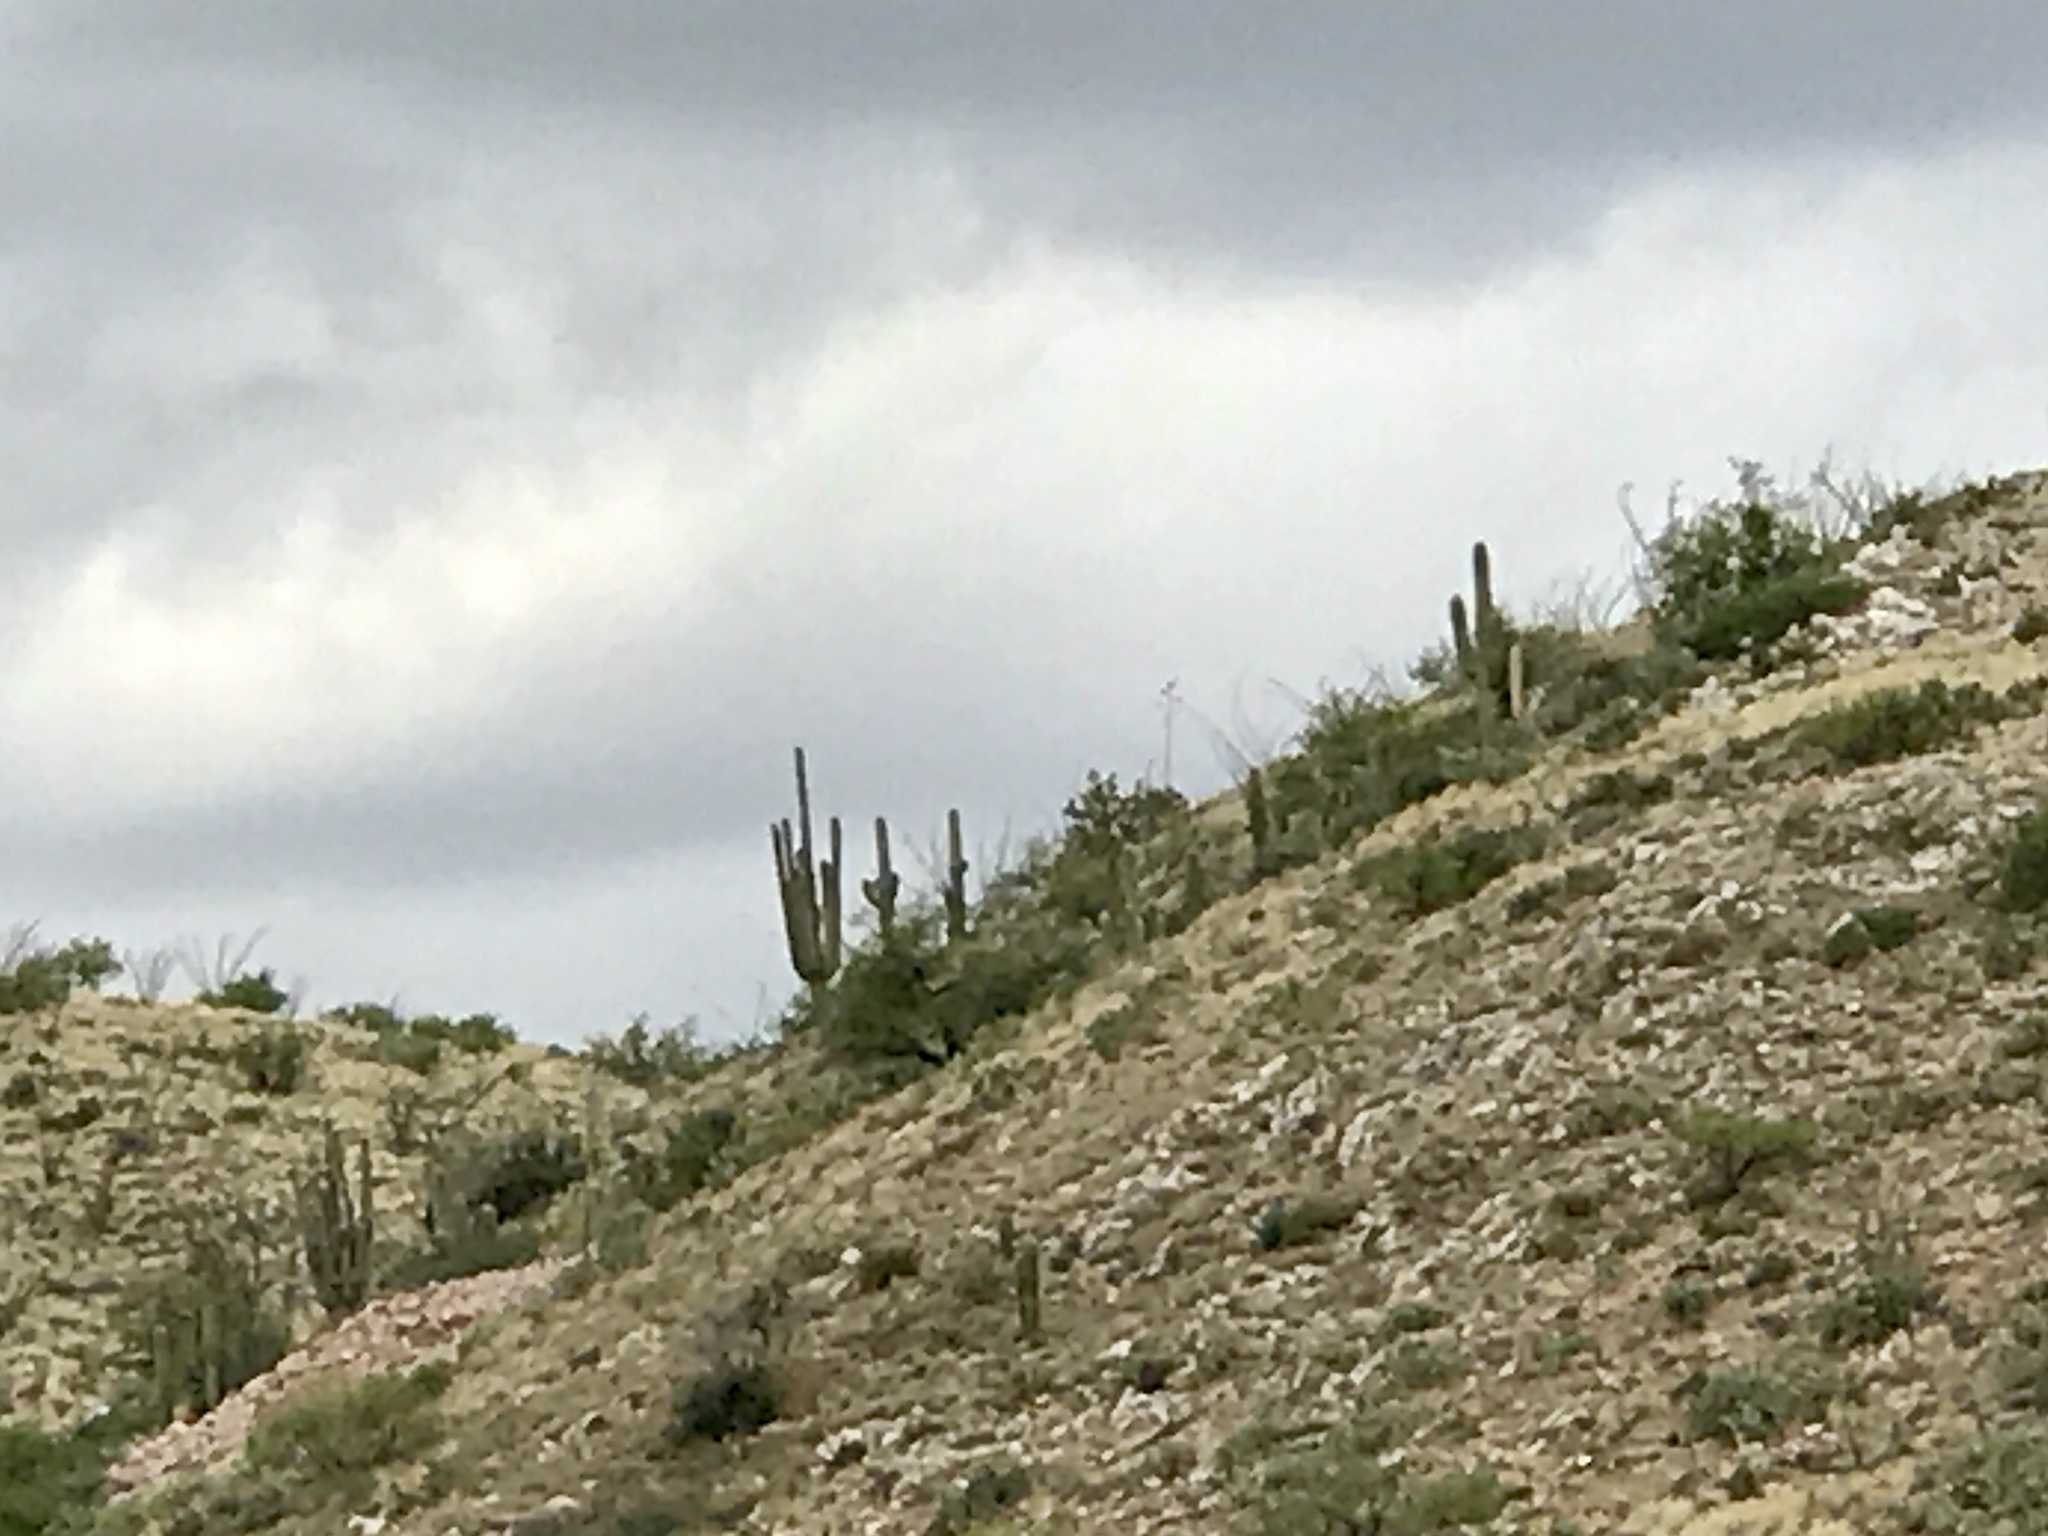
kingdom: Plantae
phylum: Tracheophyta
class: Magnoliopsida
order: Caryophyllales
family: Cactaceae
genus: Carnegiea
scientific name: Carnegiea gigantea
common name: Saguaro
